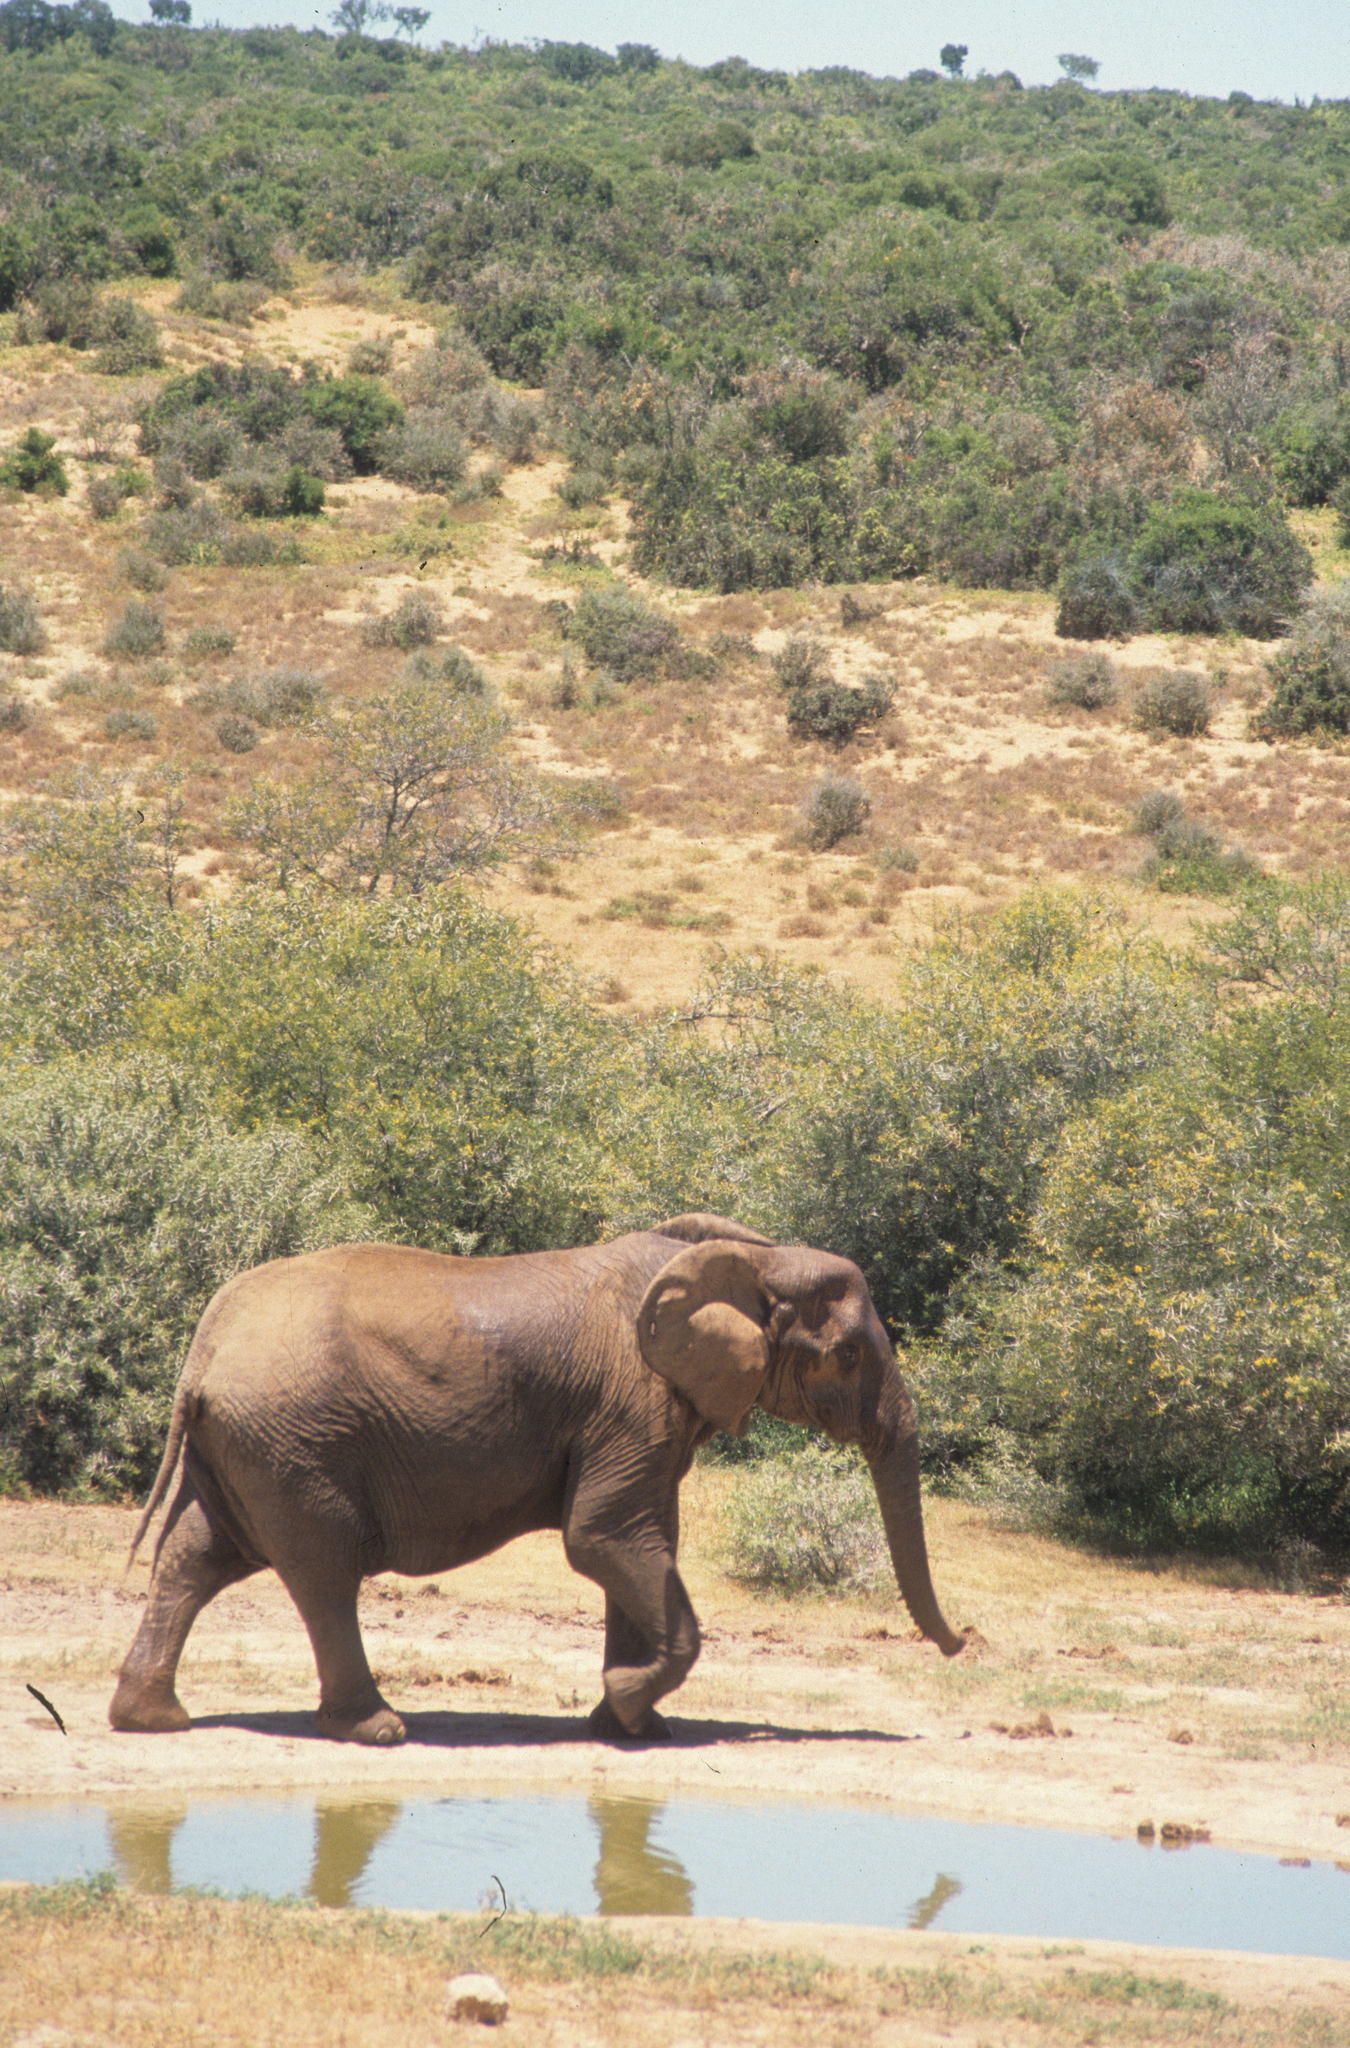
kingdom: Animalia
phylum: Chordata
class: Mammalia
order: Proboscidea
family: Elephantidae
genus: Loxodonta
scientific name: Loxodonta africana
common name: African elephant
